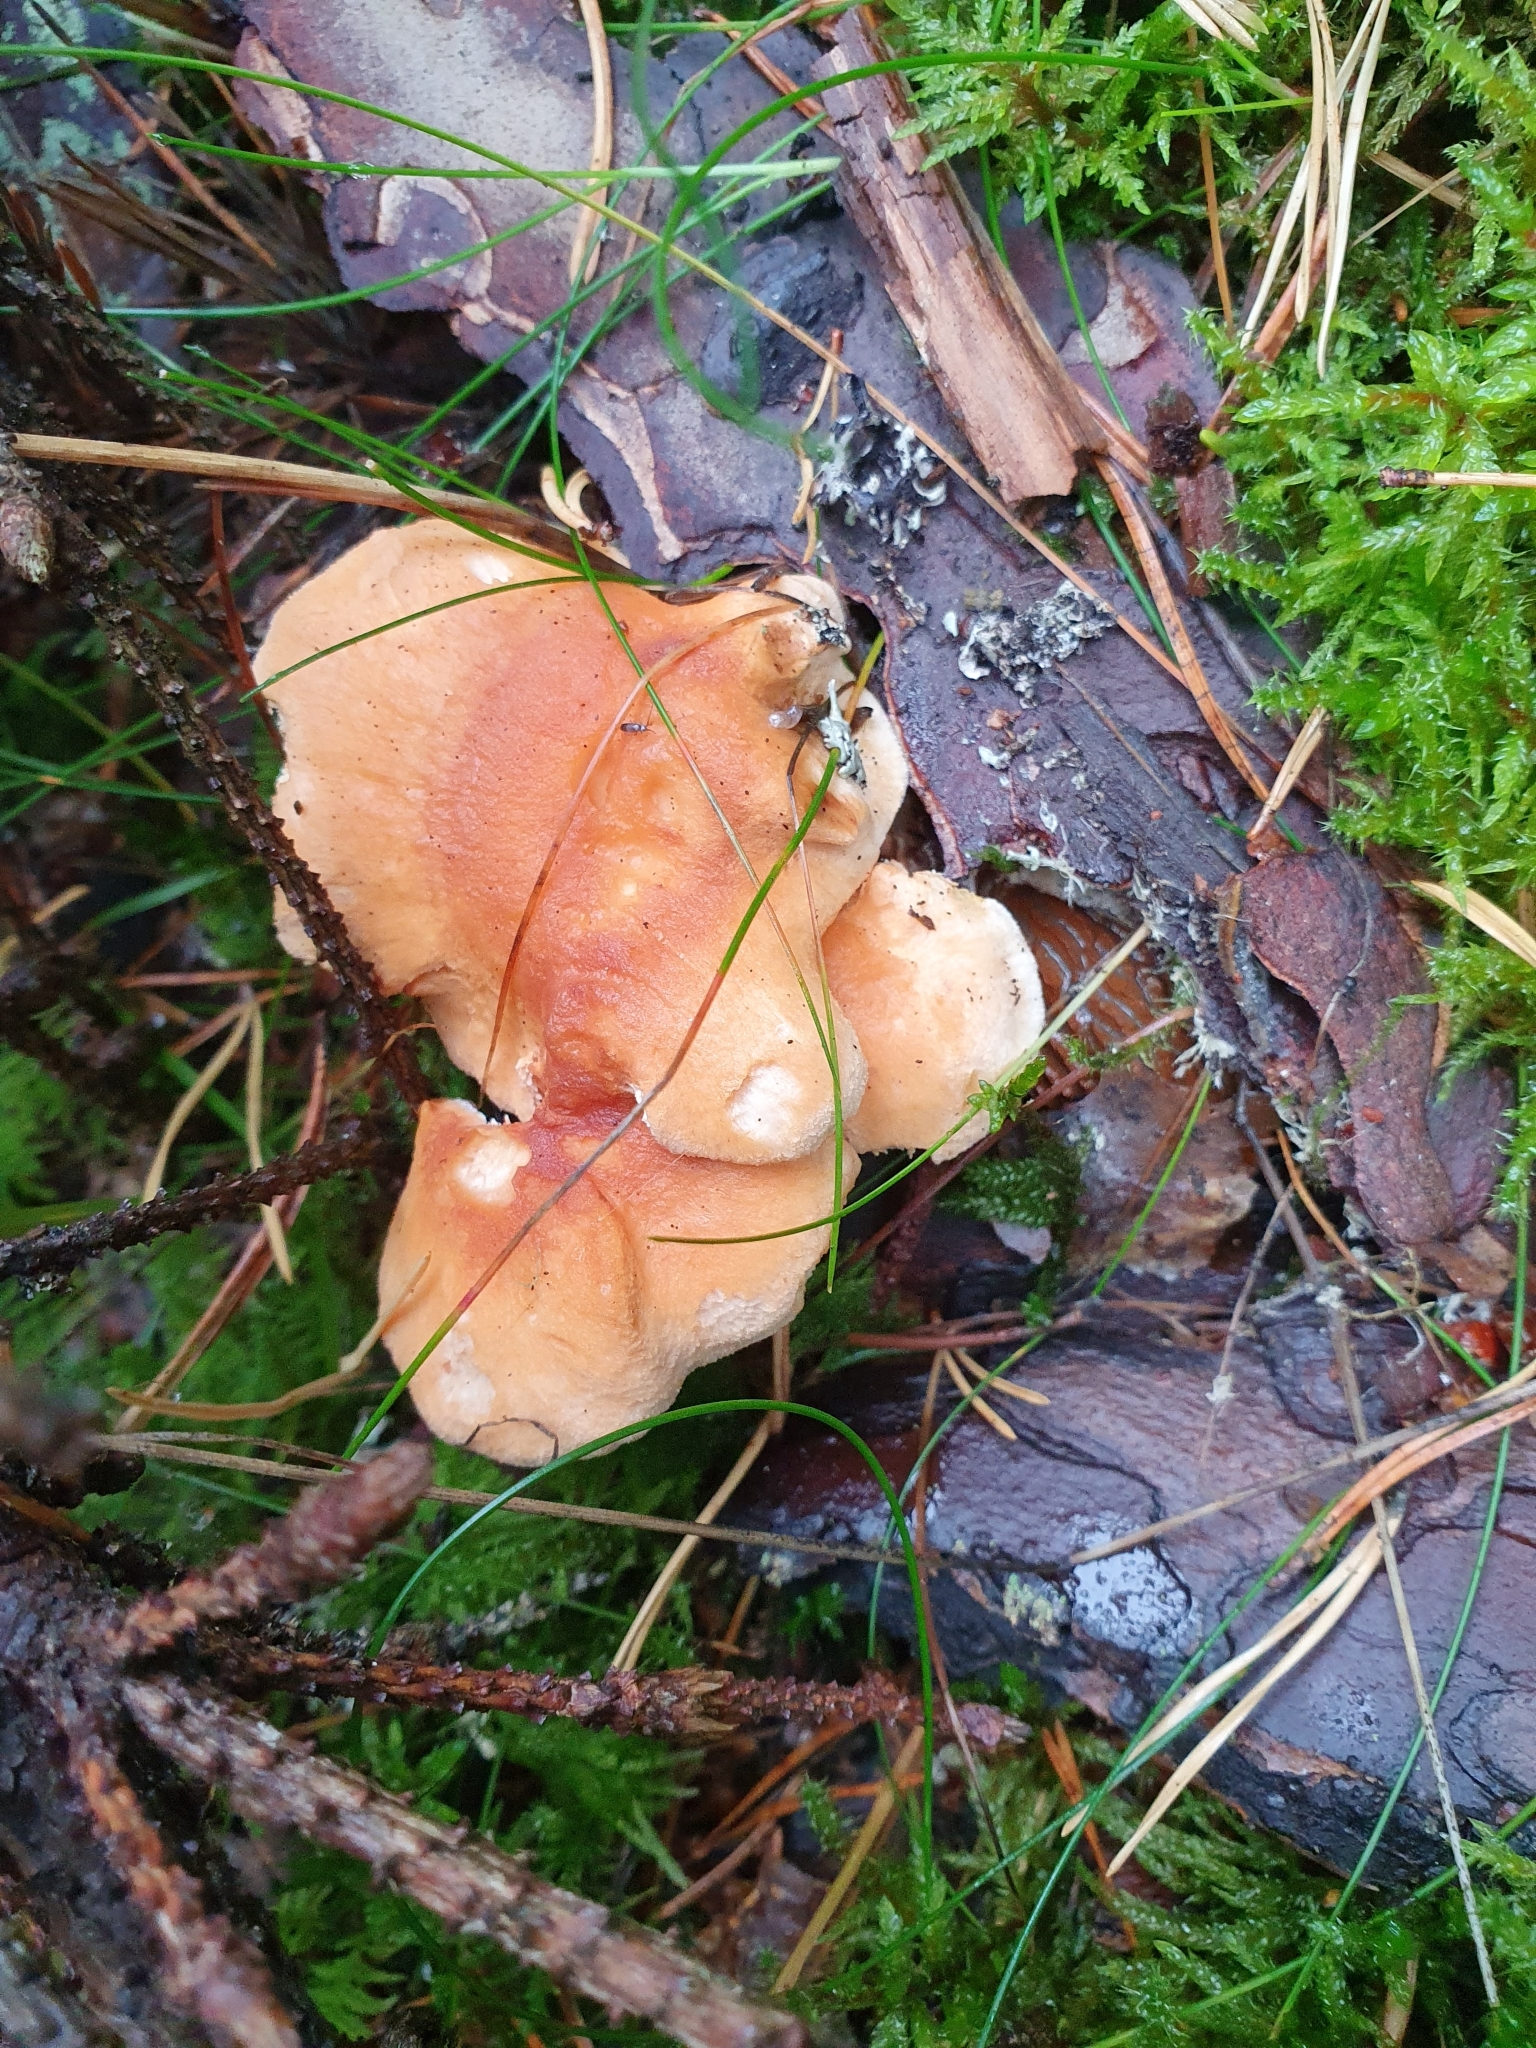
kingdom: Fungi
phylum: Basidiomycota
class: Agaricomycetes
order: Cantharellales
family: Hydnaceae
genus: Hydnum
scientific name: Hydnum rufescens
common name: Terracotta hedgehog
